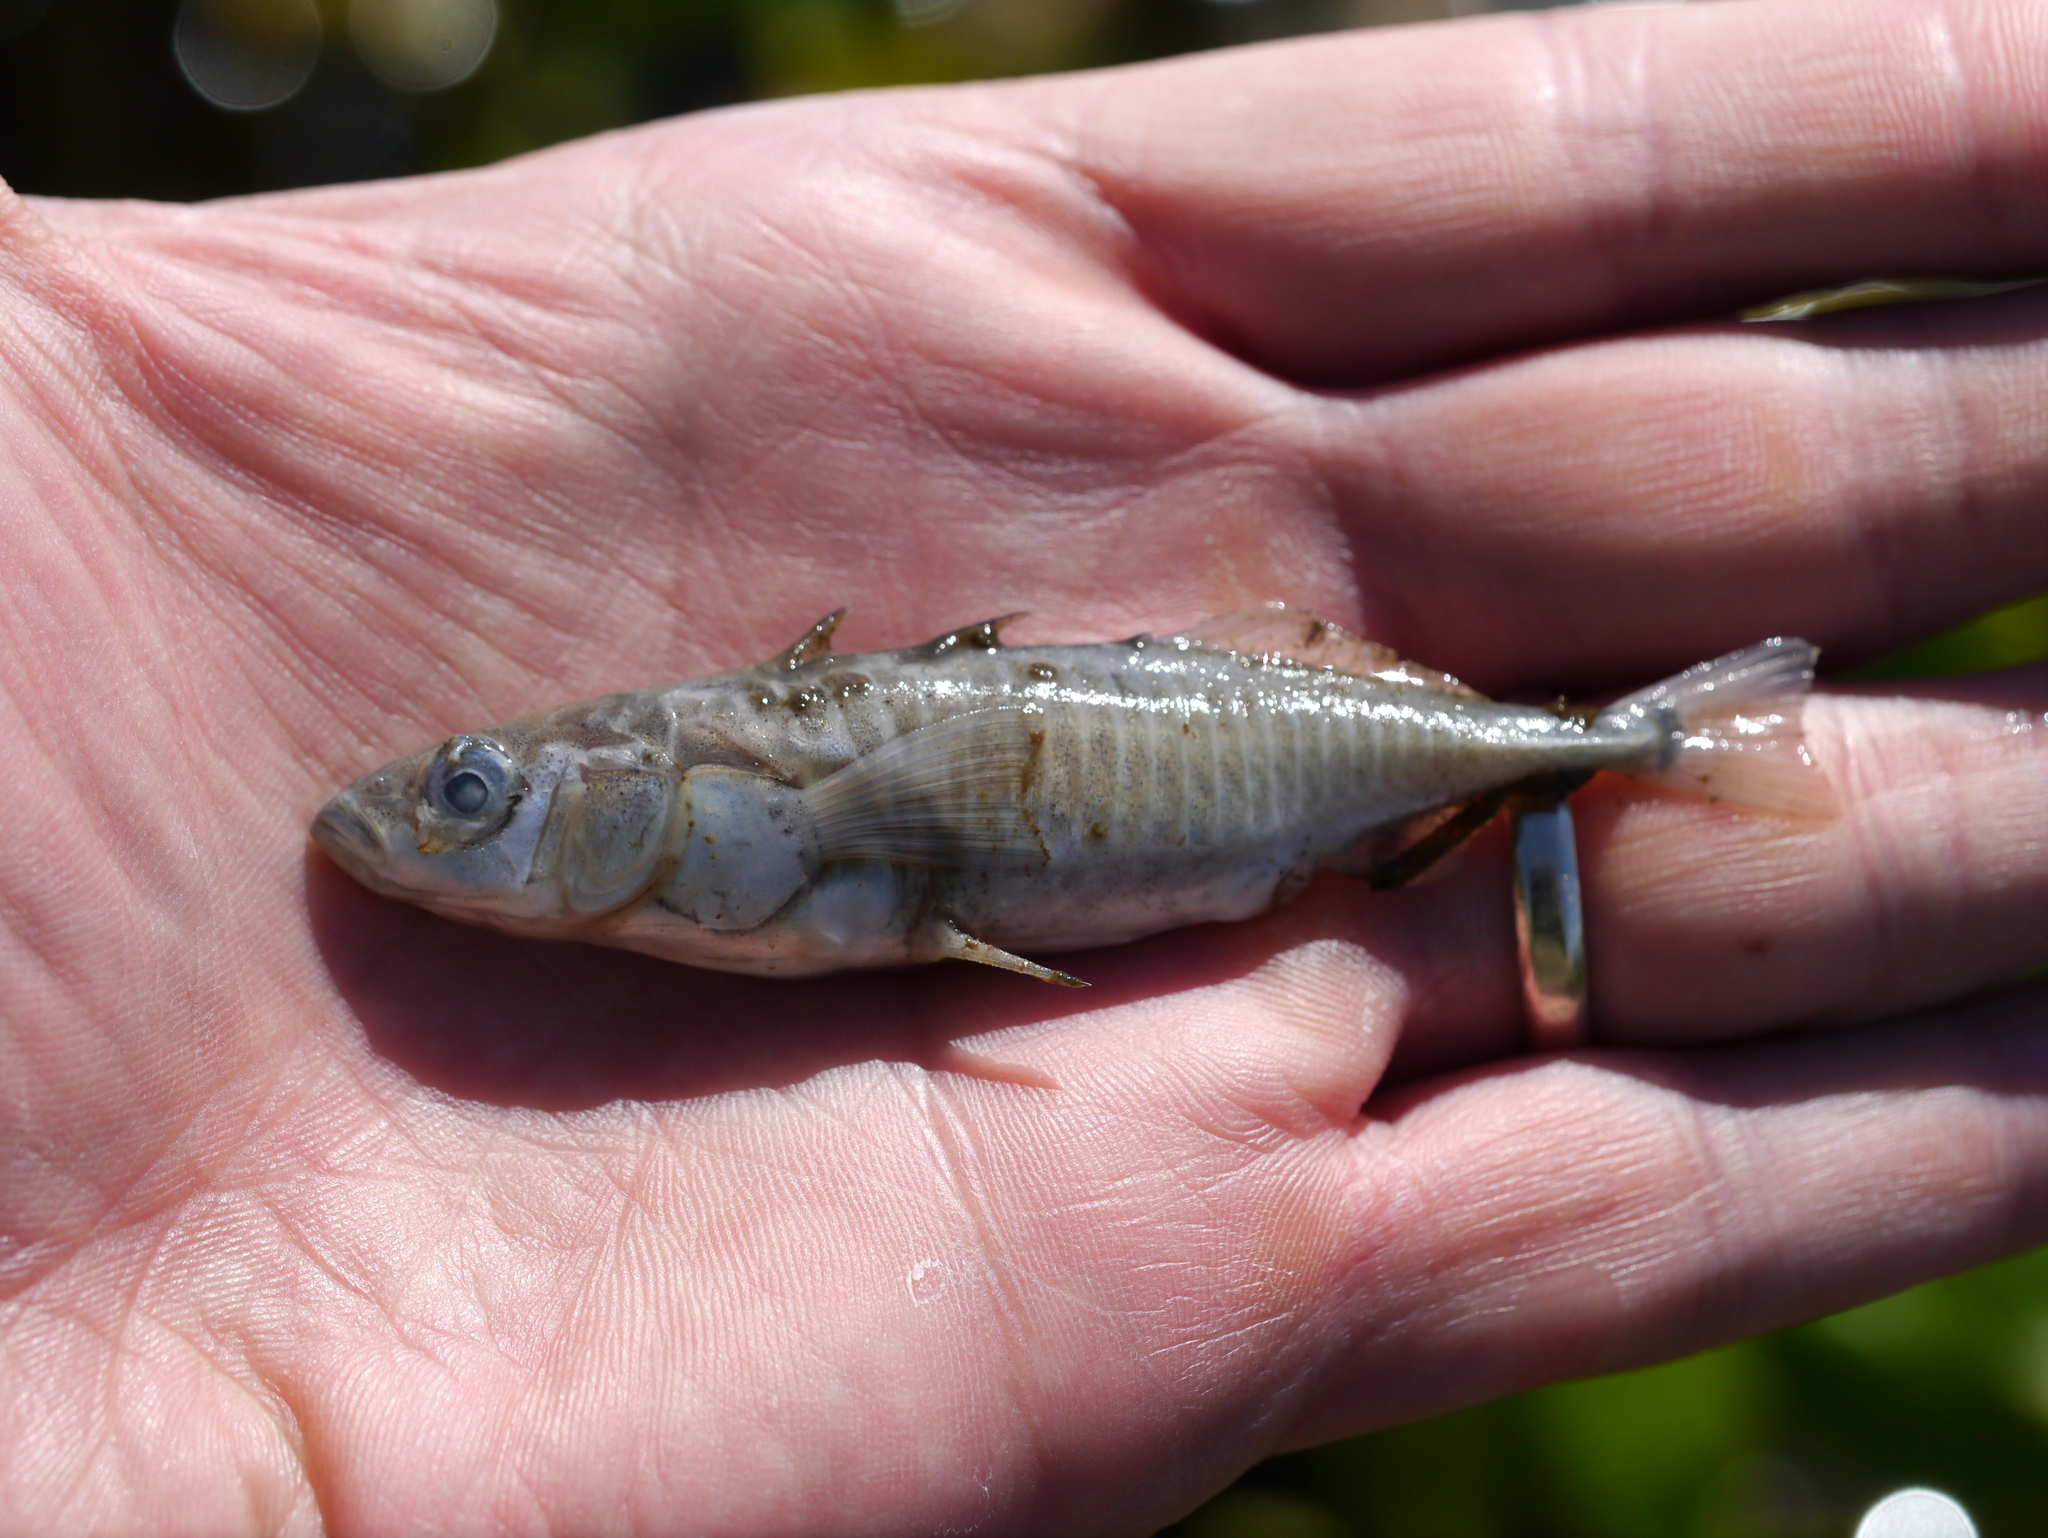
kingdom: Animalia
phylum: Chordata
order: Gasterosteiformes
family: Gasterosteidae
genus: Gasterosteus
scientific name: Gasterosteus aculeatus
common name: Three-spined stickleback
